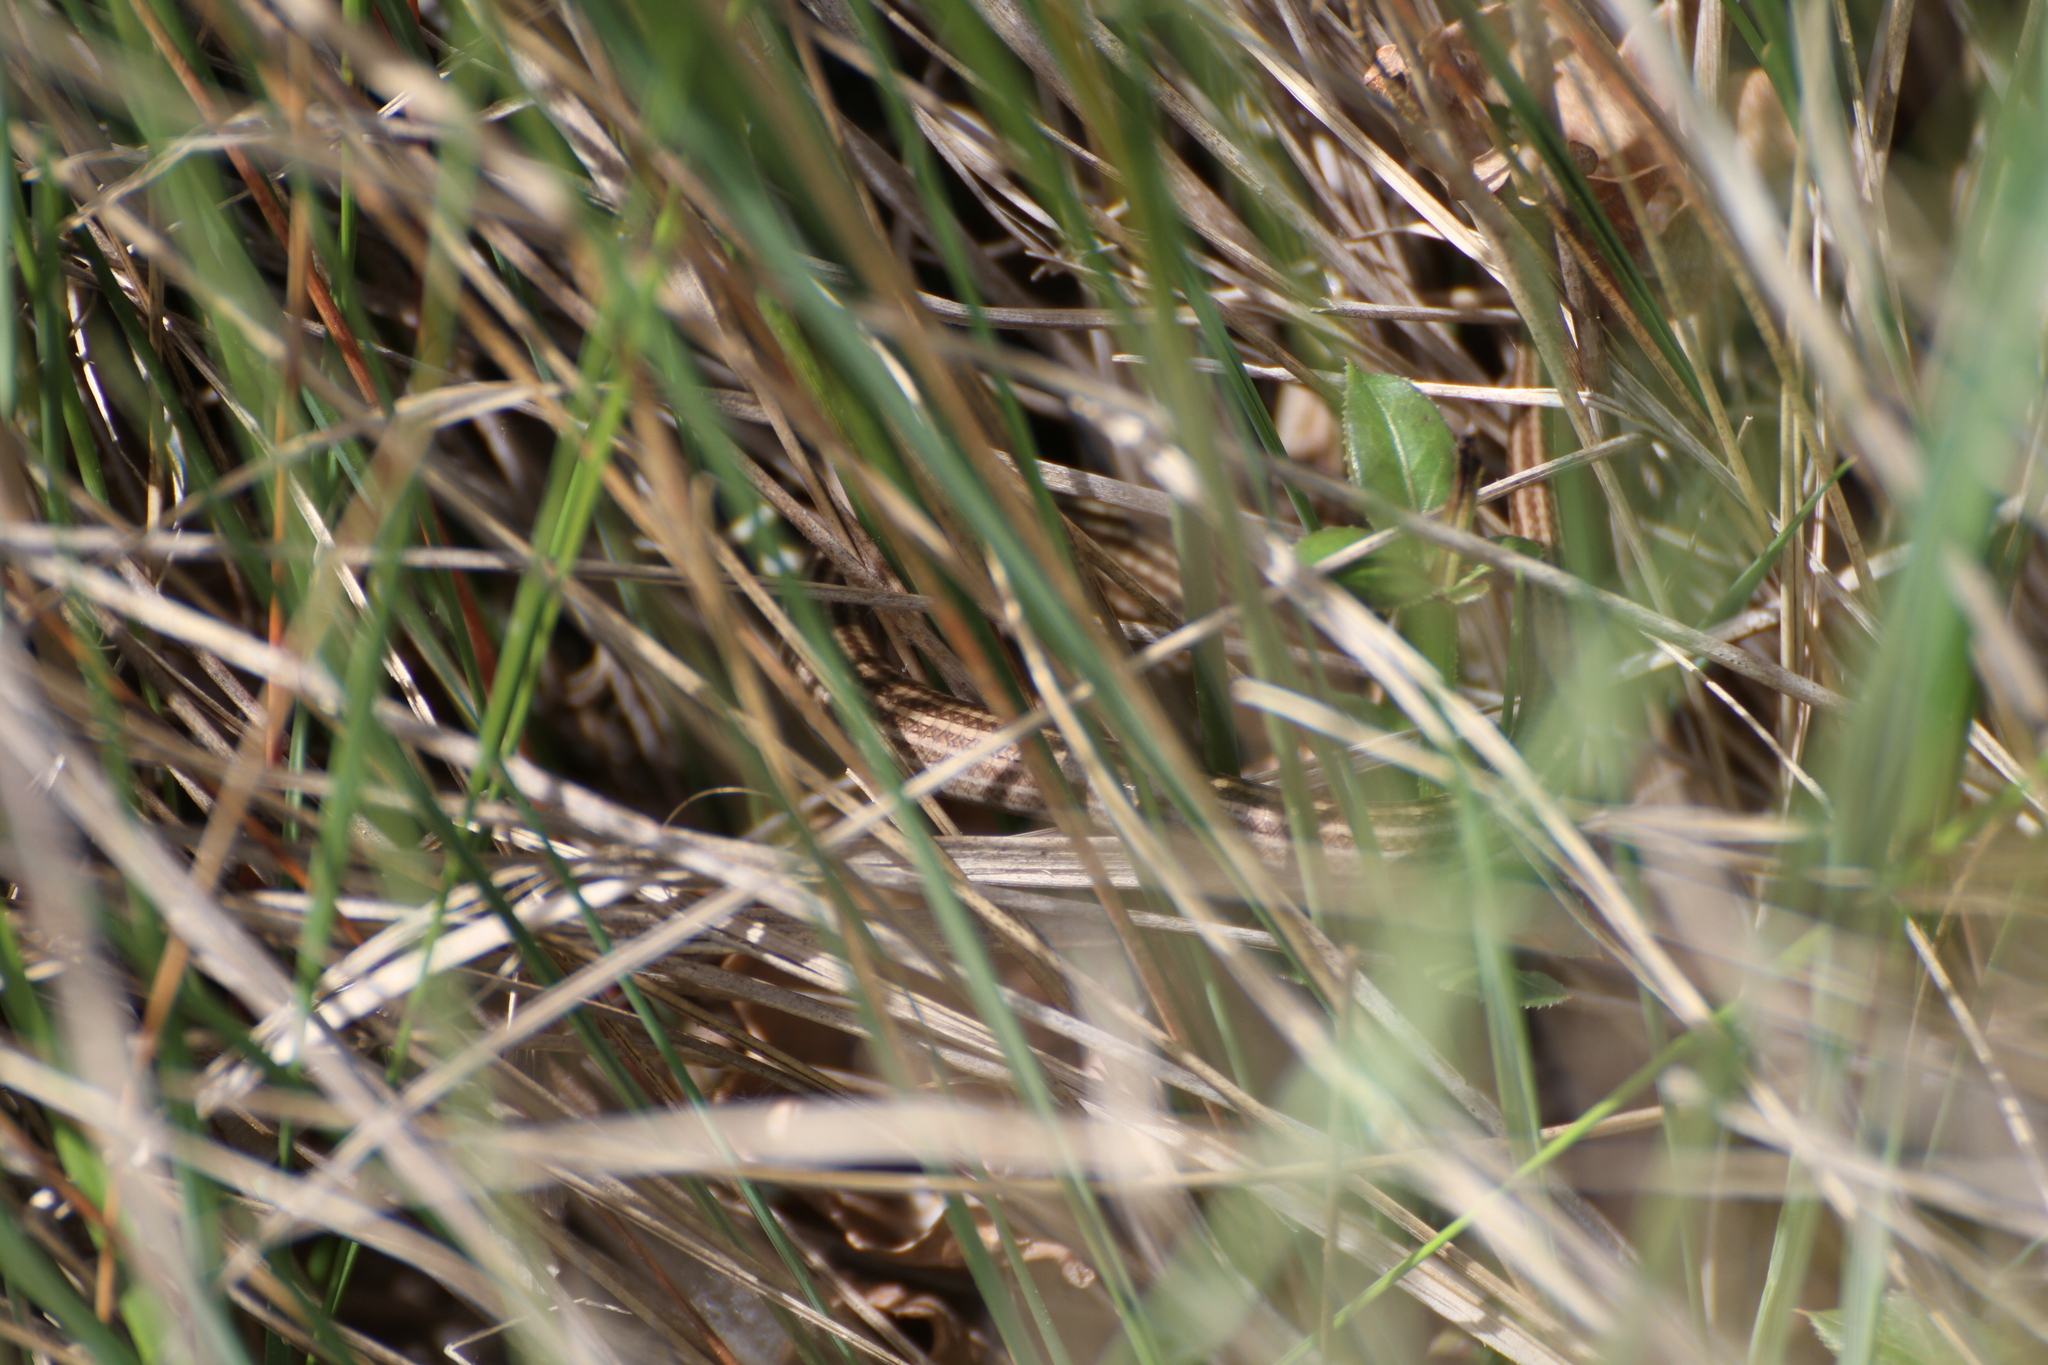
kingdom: Animalia
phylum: Chordata
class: Squamata
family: Scincidae
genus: Chalcides
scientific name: Chalcides striatus
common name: Western (or iberian) three-toed skink
